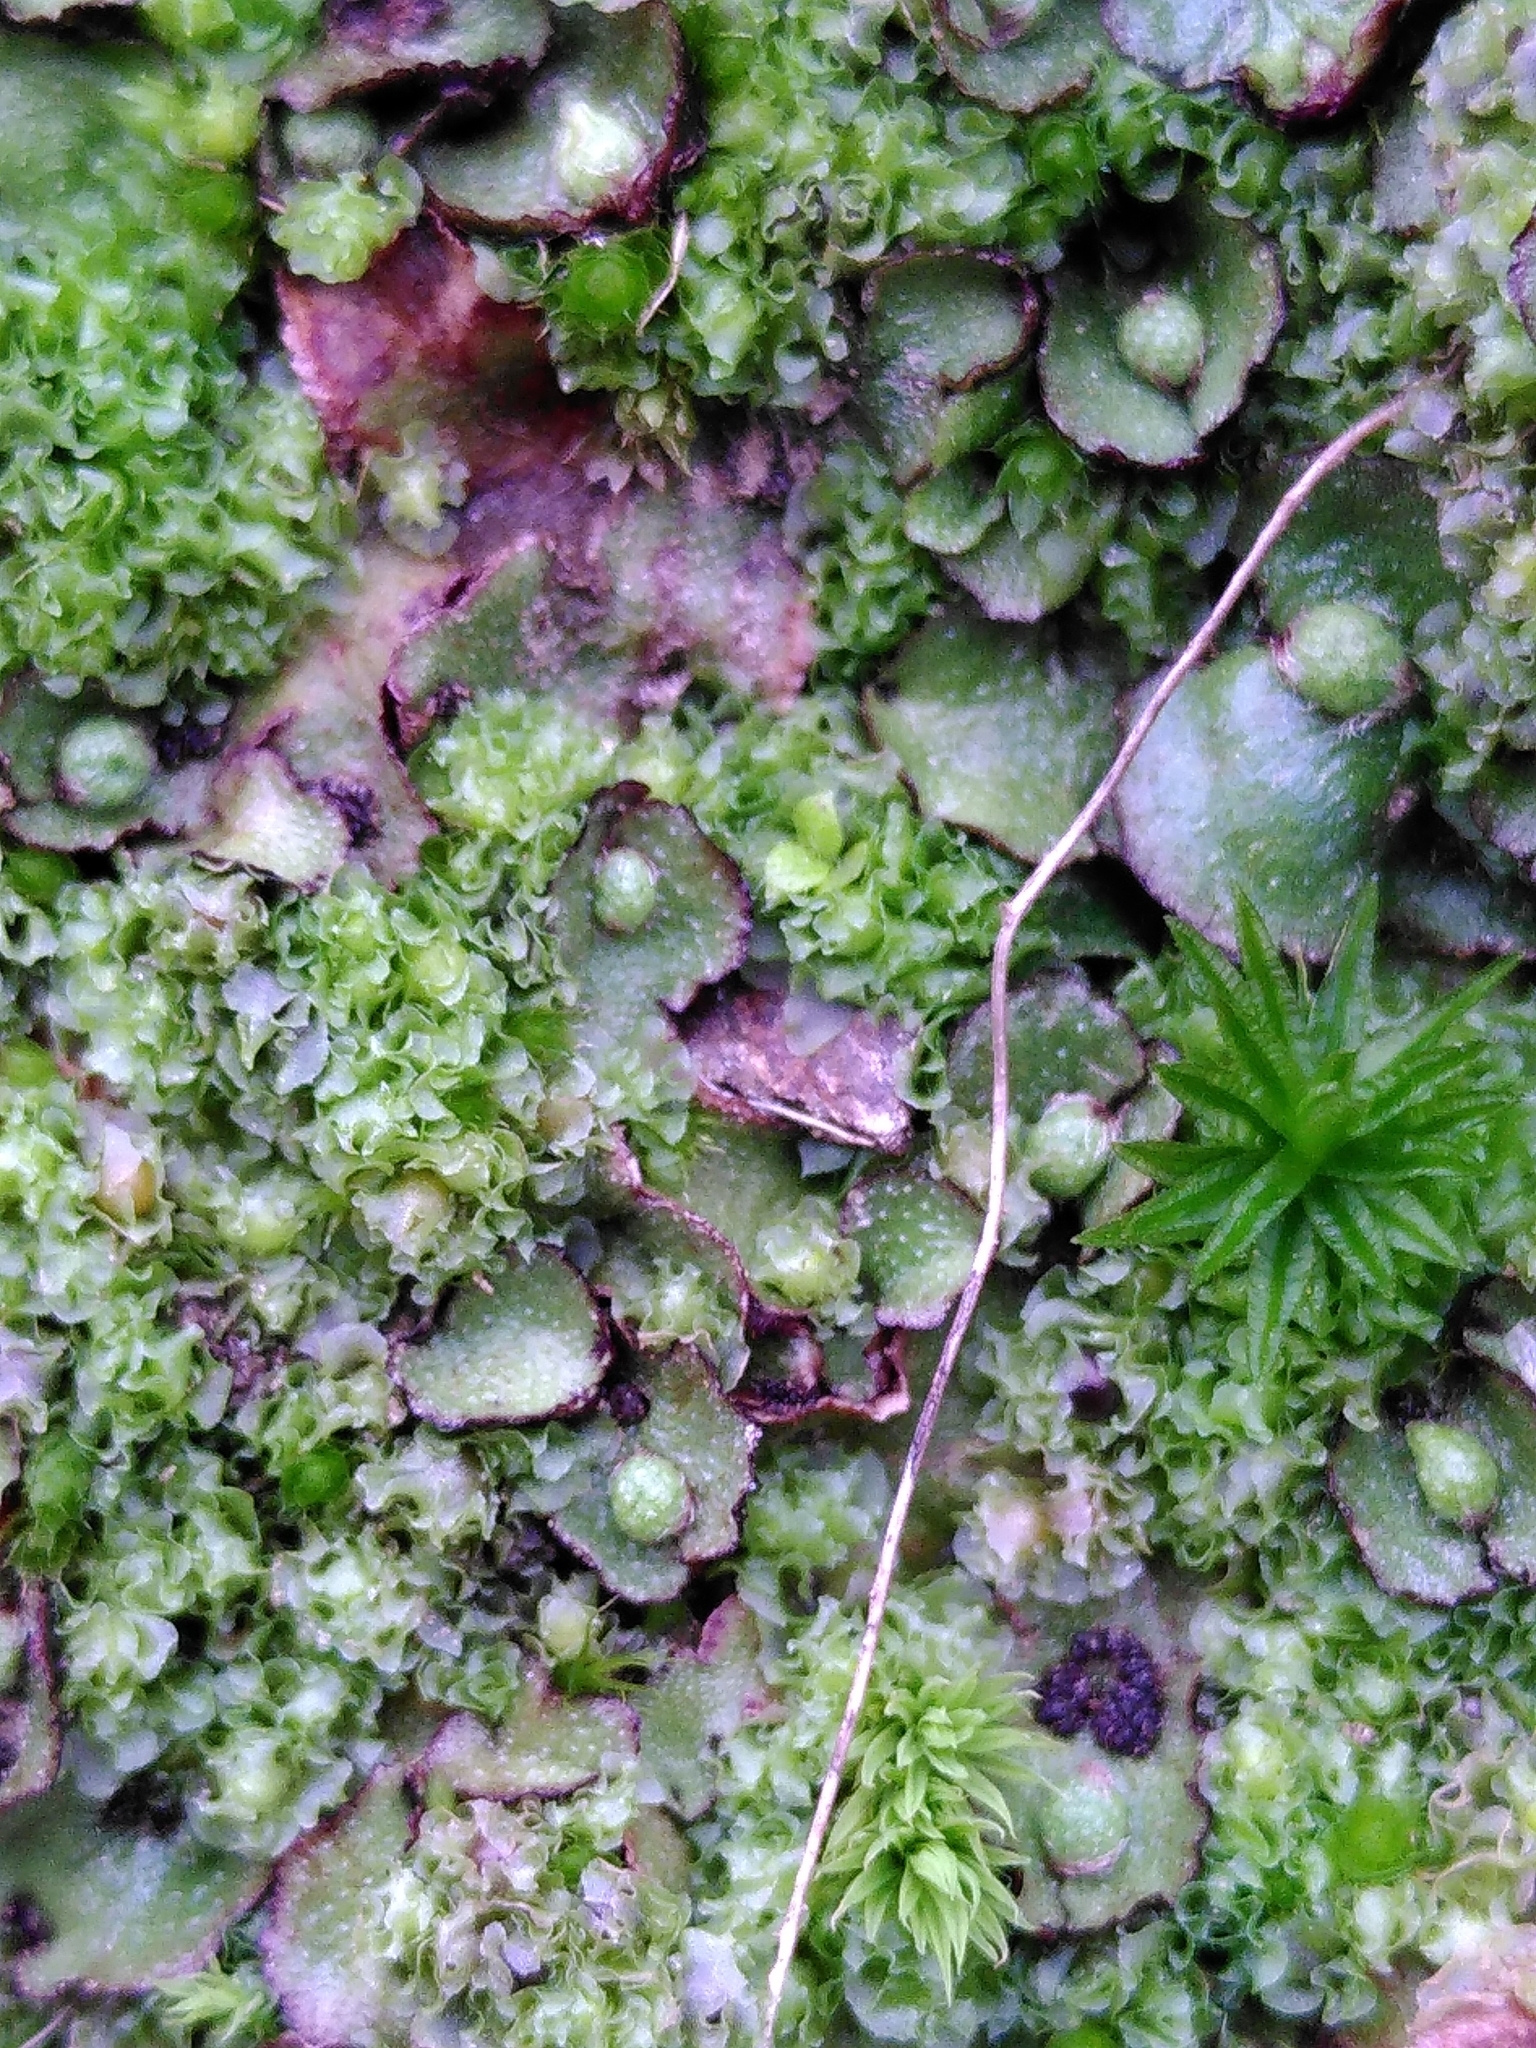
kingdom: Plantae
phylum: Marchantiophyta
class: Marchantiopsida
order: Marchantiales
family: Aytoniaceae
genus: Reboulia
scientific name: Reboulia hemisphaerica
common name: Purple-margined liverwort
